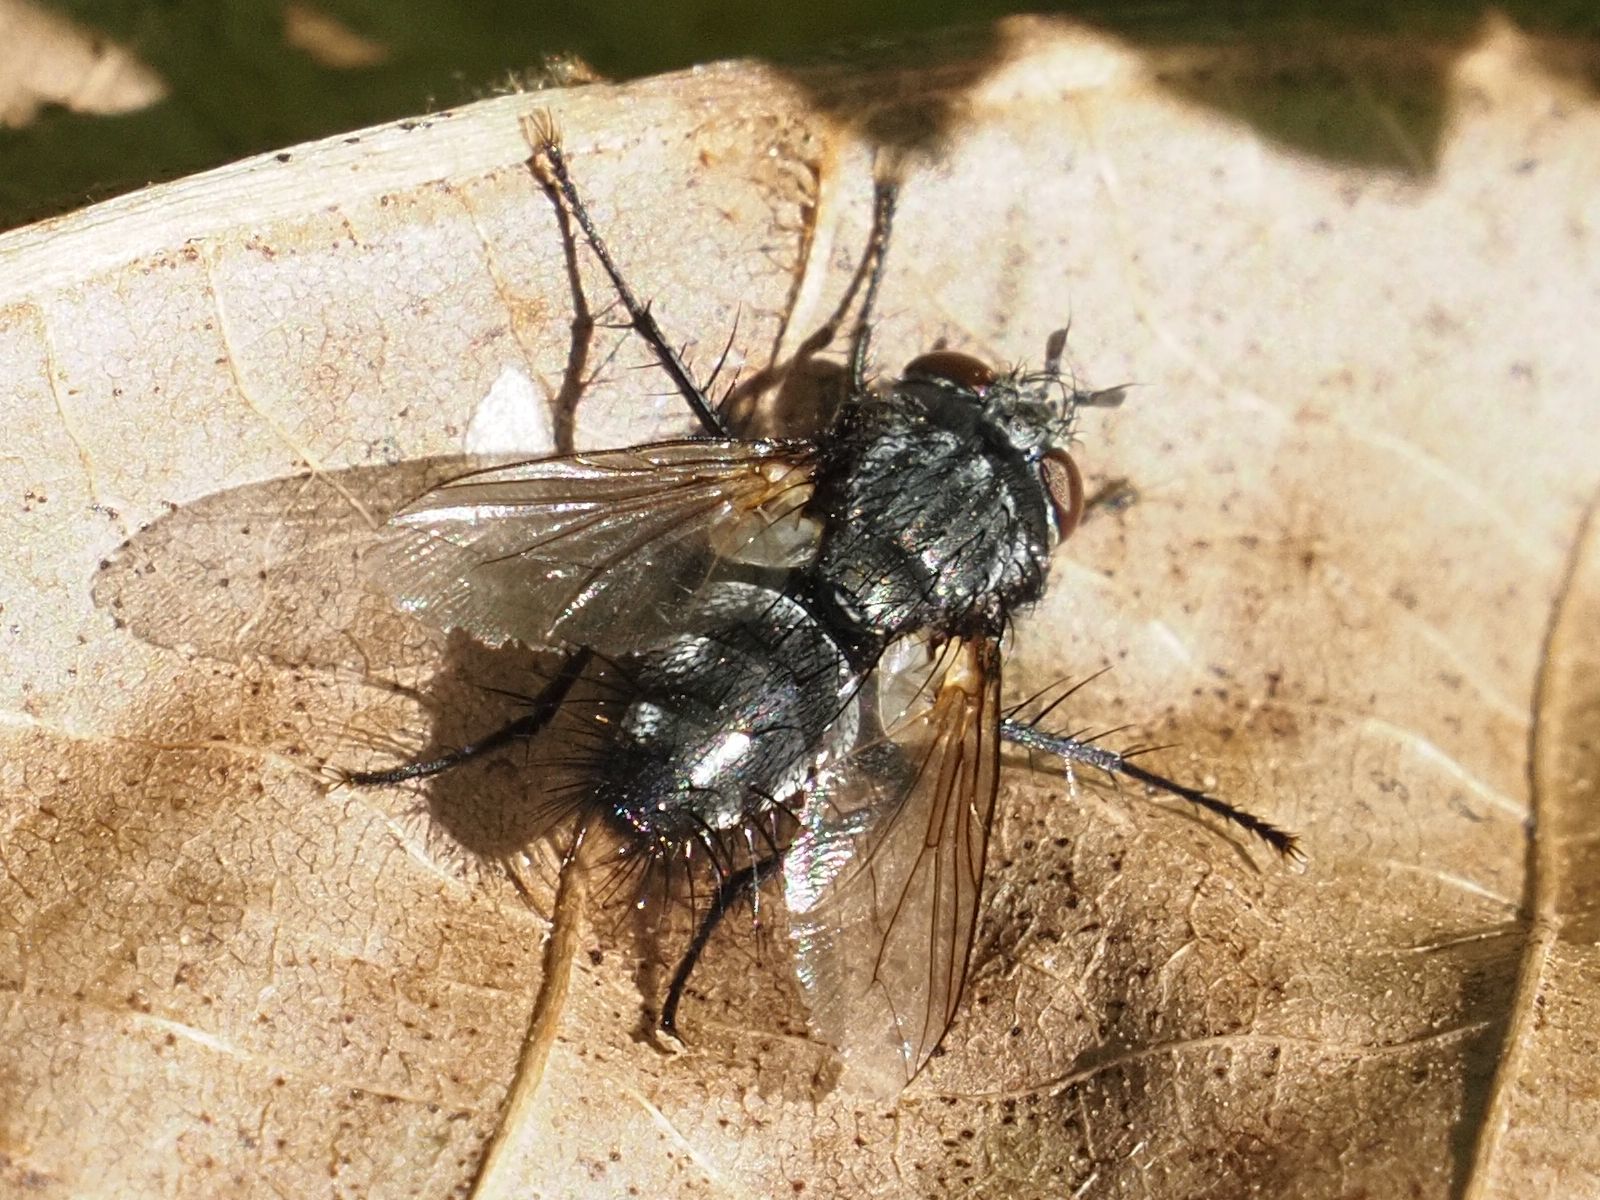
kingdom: Animalia
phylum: Arthropoda
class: Insecta
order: Diptera
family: Tachinidae
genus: Voria
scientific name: Voria ruralis
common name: Parasitic fly
